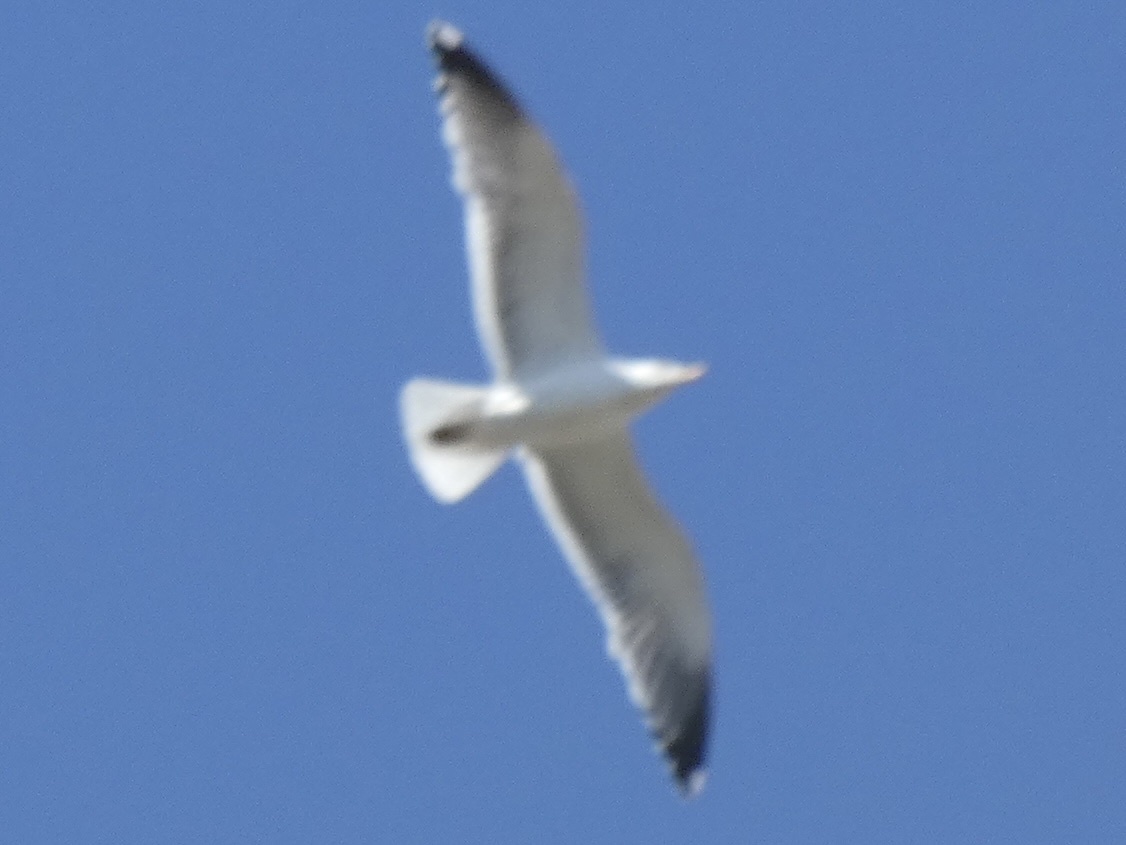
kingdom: Animalia
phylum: Chordata
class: Aves
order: Charadriiformes
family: Laridae
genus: Larus
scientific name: Larus fuscus
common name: Lesser black-backed gull
